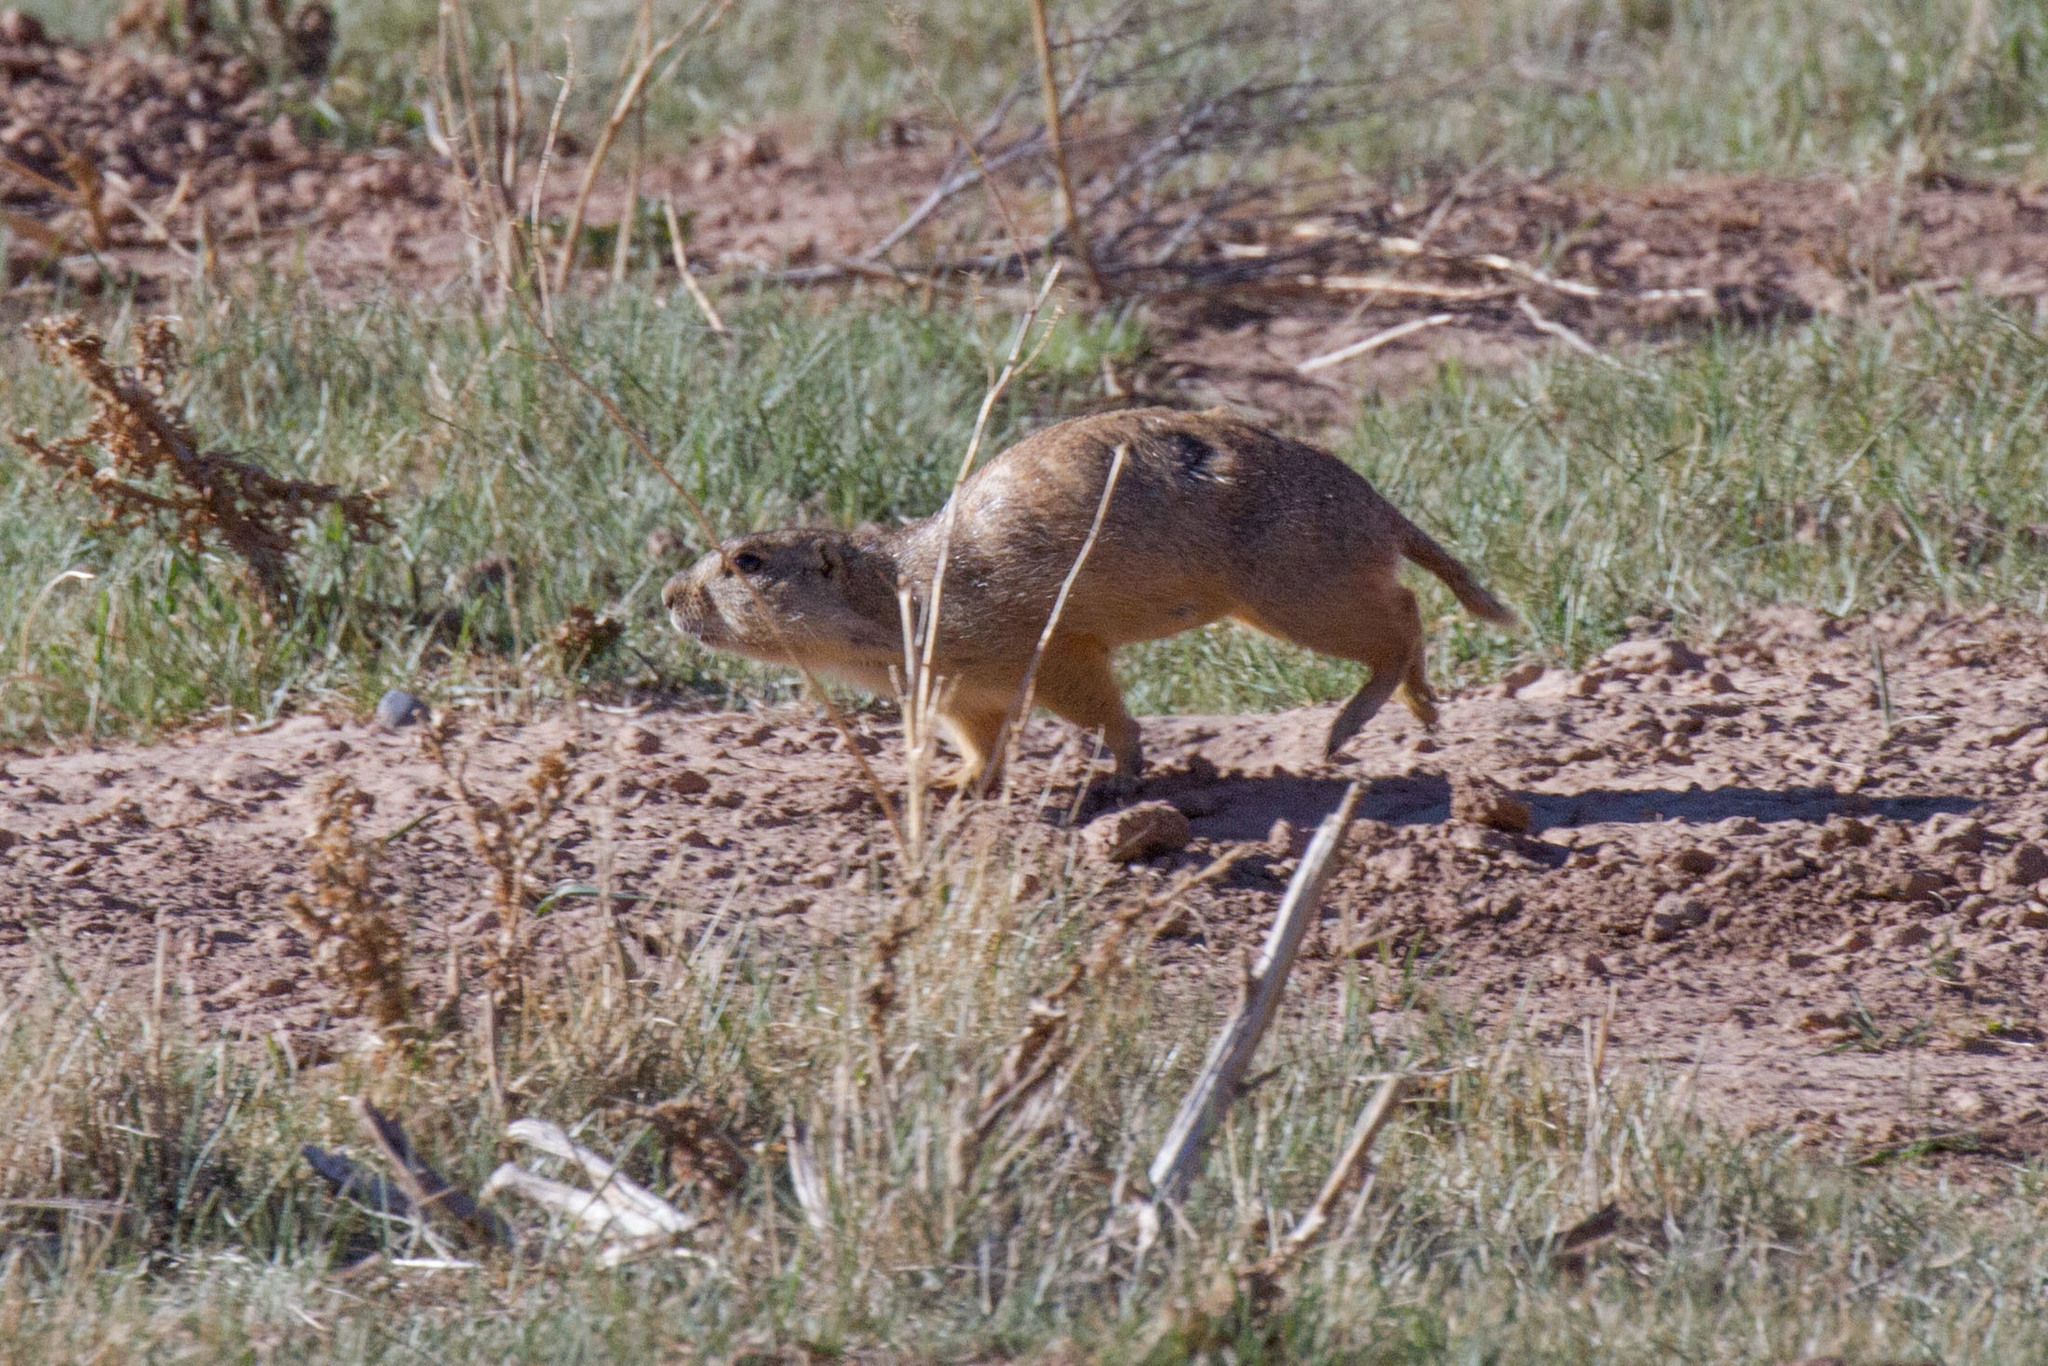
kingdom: Animalia
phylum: Chordata
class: Mammalia
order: Rodentia
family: Sciuridae
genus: Cynomys
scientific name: Cynomys gunnisoni
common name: Gunnison's prairie dog
